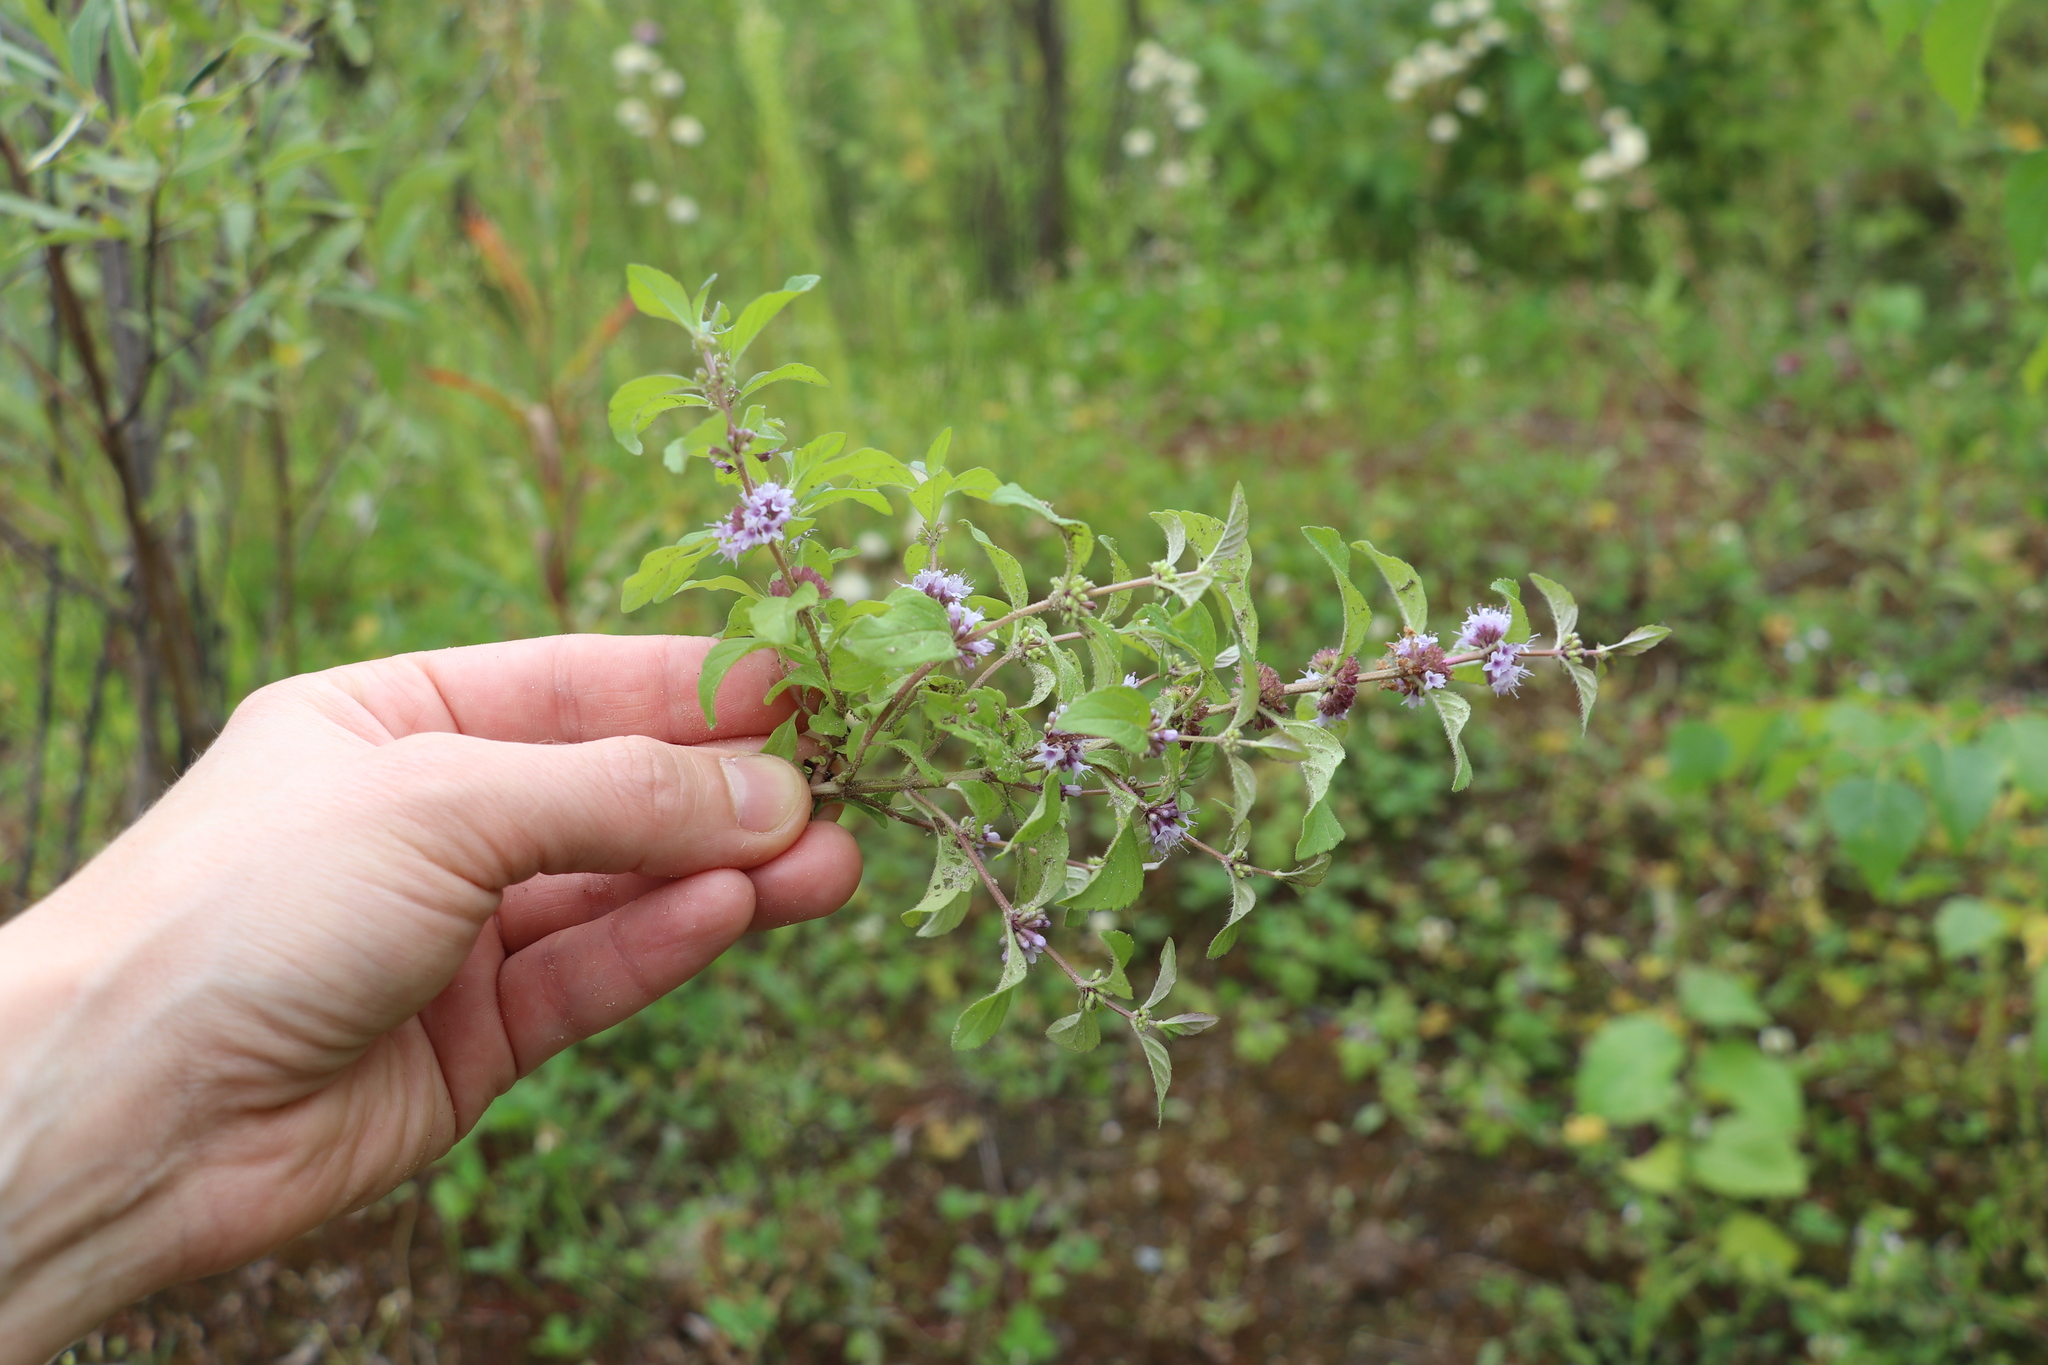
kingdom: Plantae
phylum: Tracheophyta
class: Magnoliopsida
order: Lamiales
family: Lamiaceae
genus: Mentha
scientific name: Mentha arvensis
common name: Corn mint
